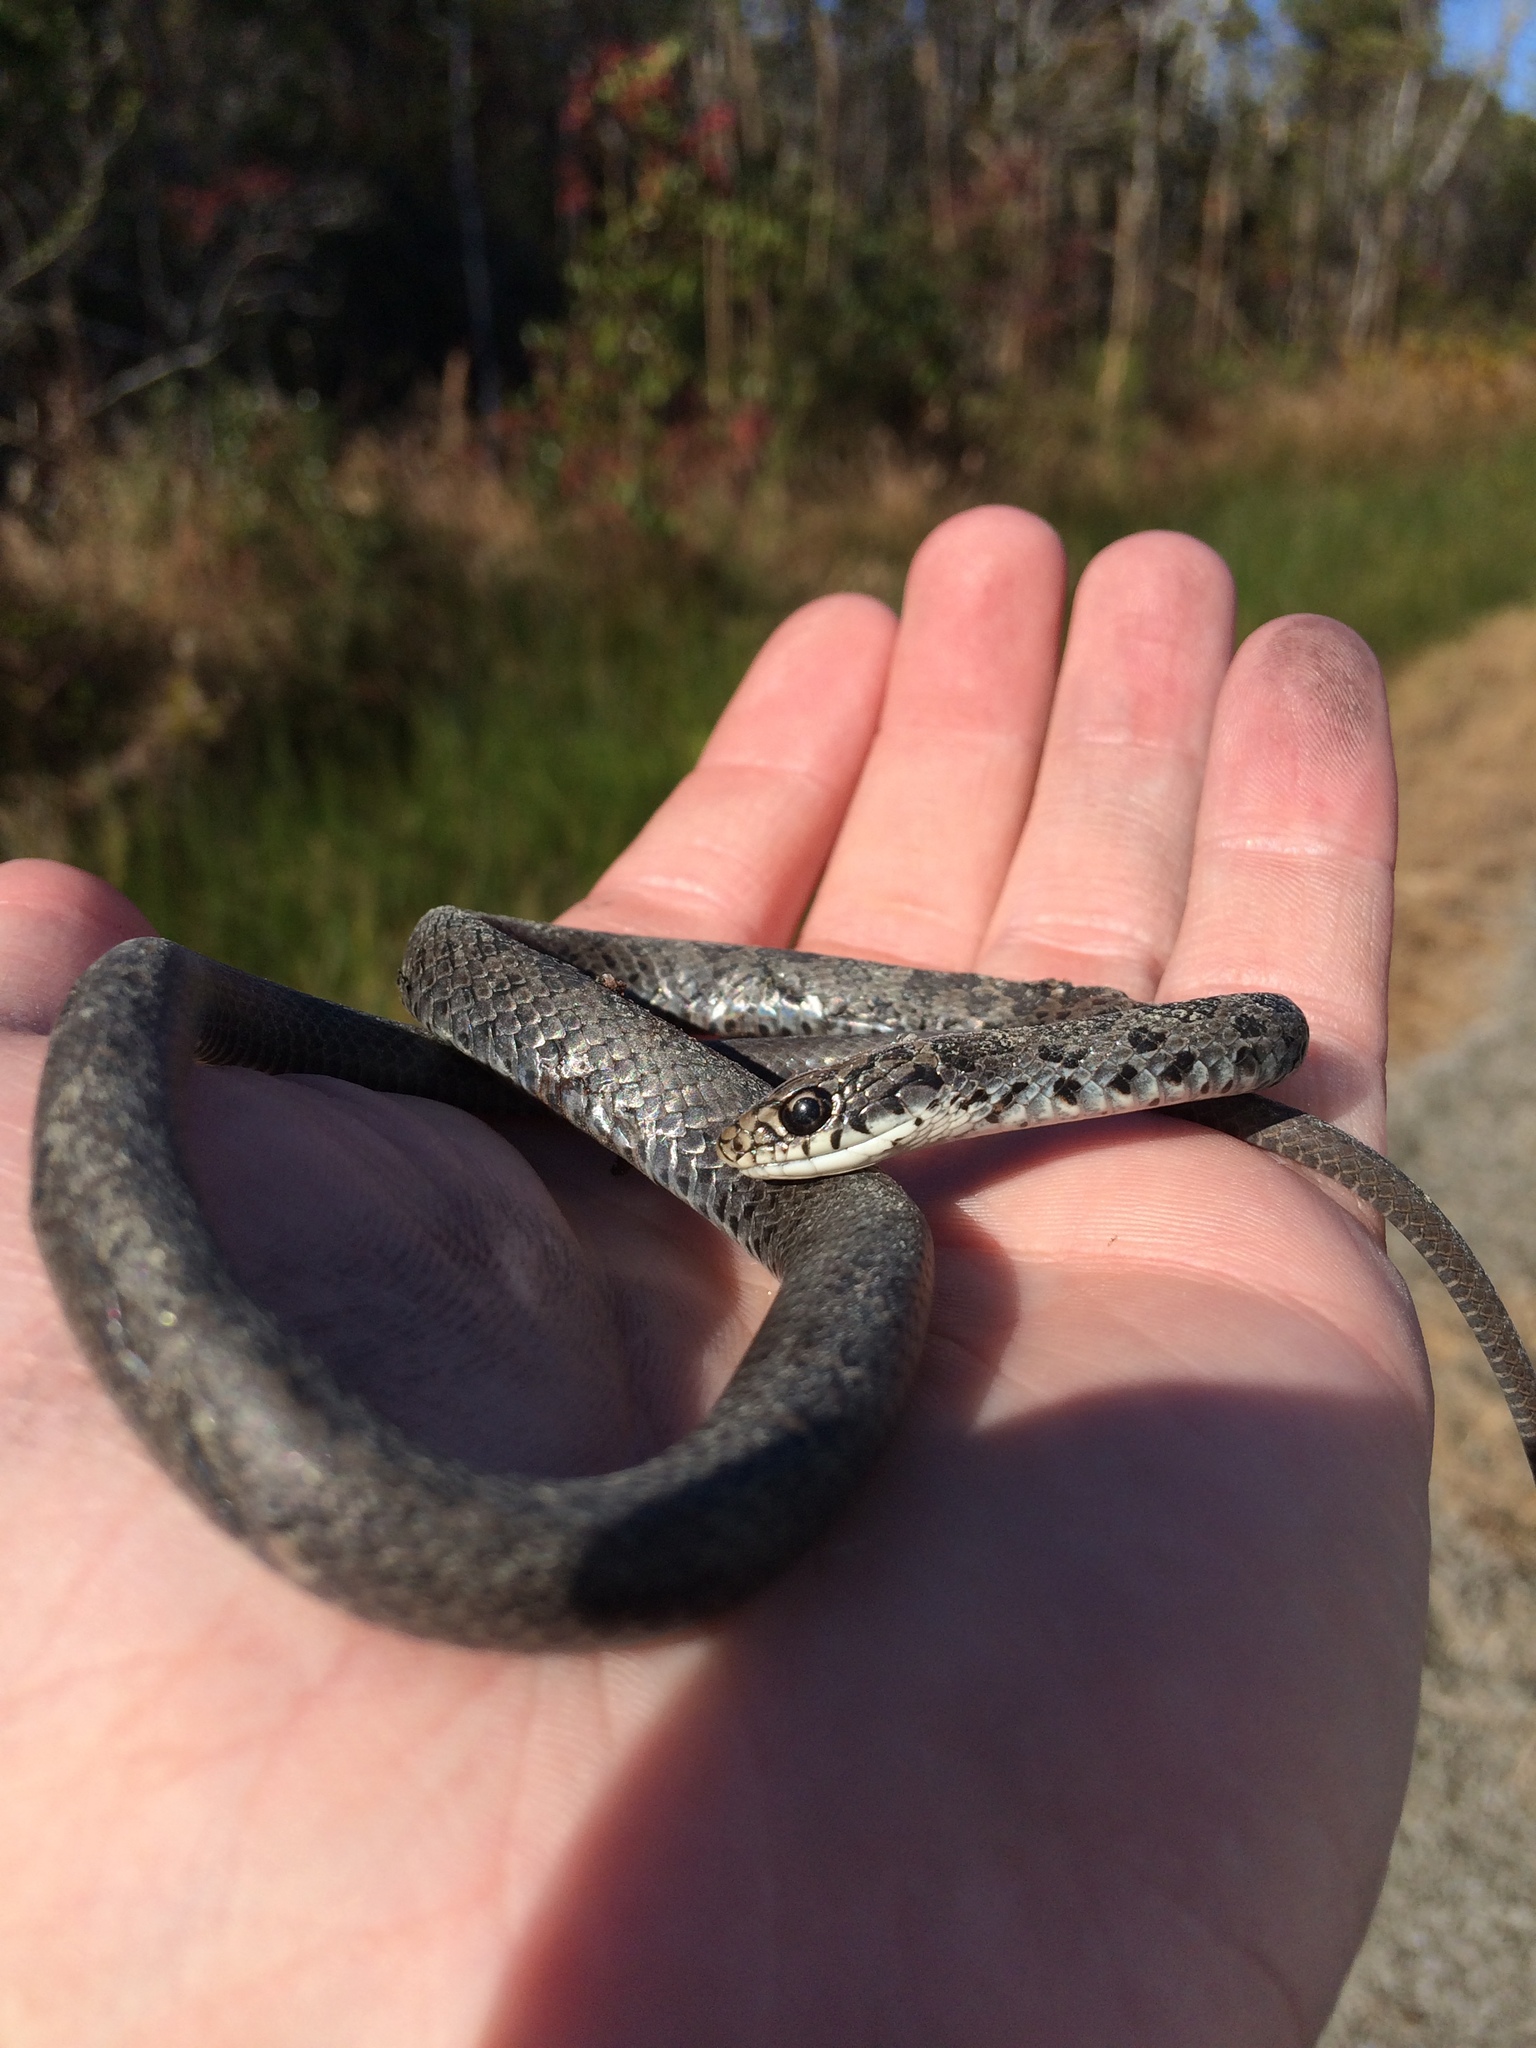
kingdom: Animalia
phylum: Chordata
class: Squamata
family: Colubridae
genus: Coluber
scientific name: Coluber constrictor
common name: Eastern racer
